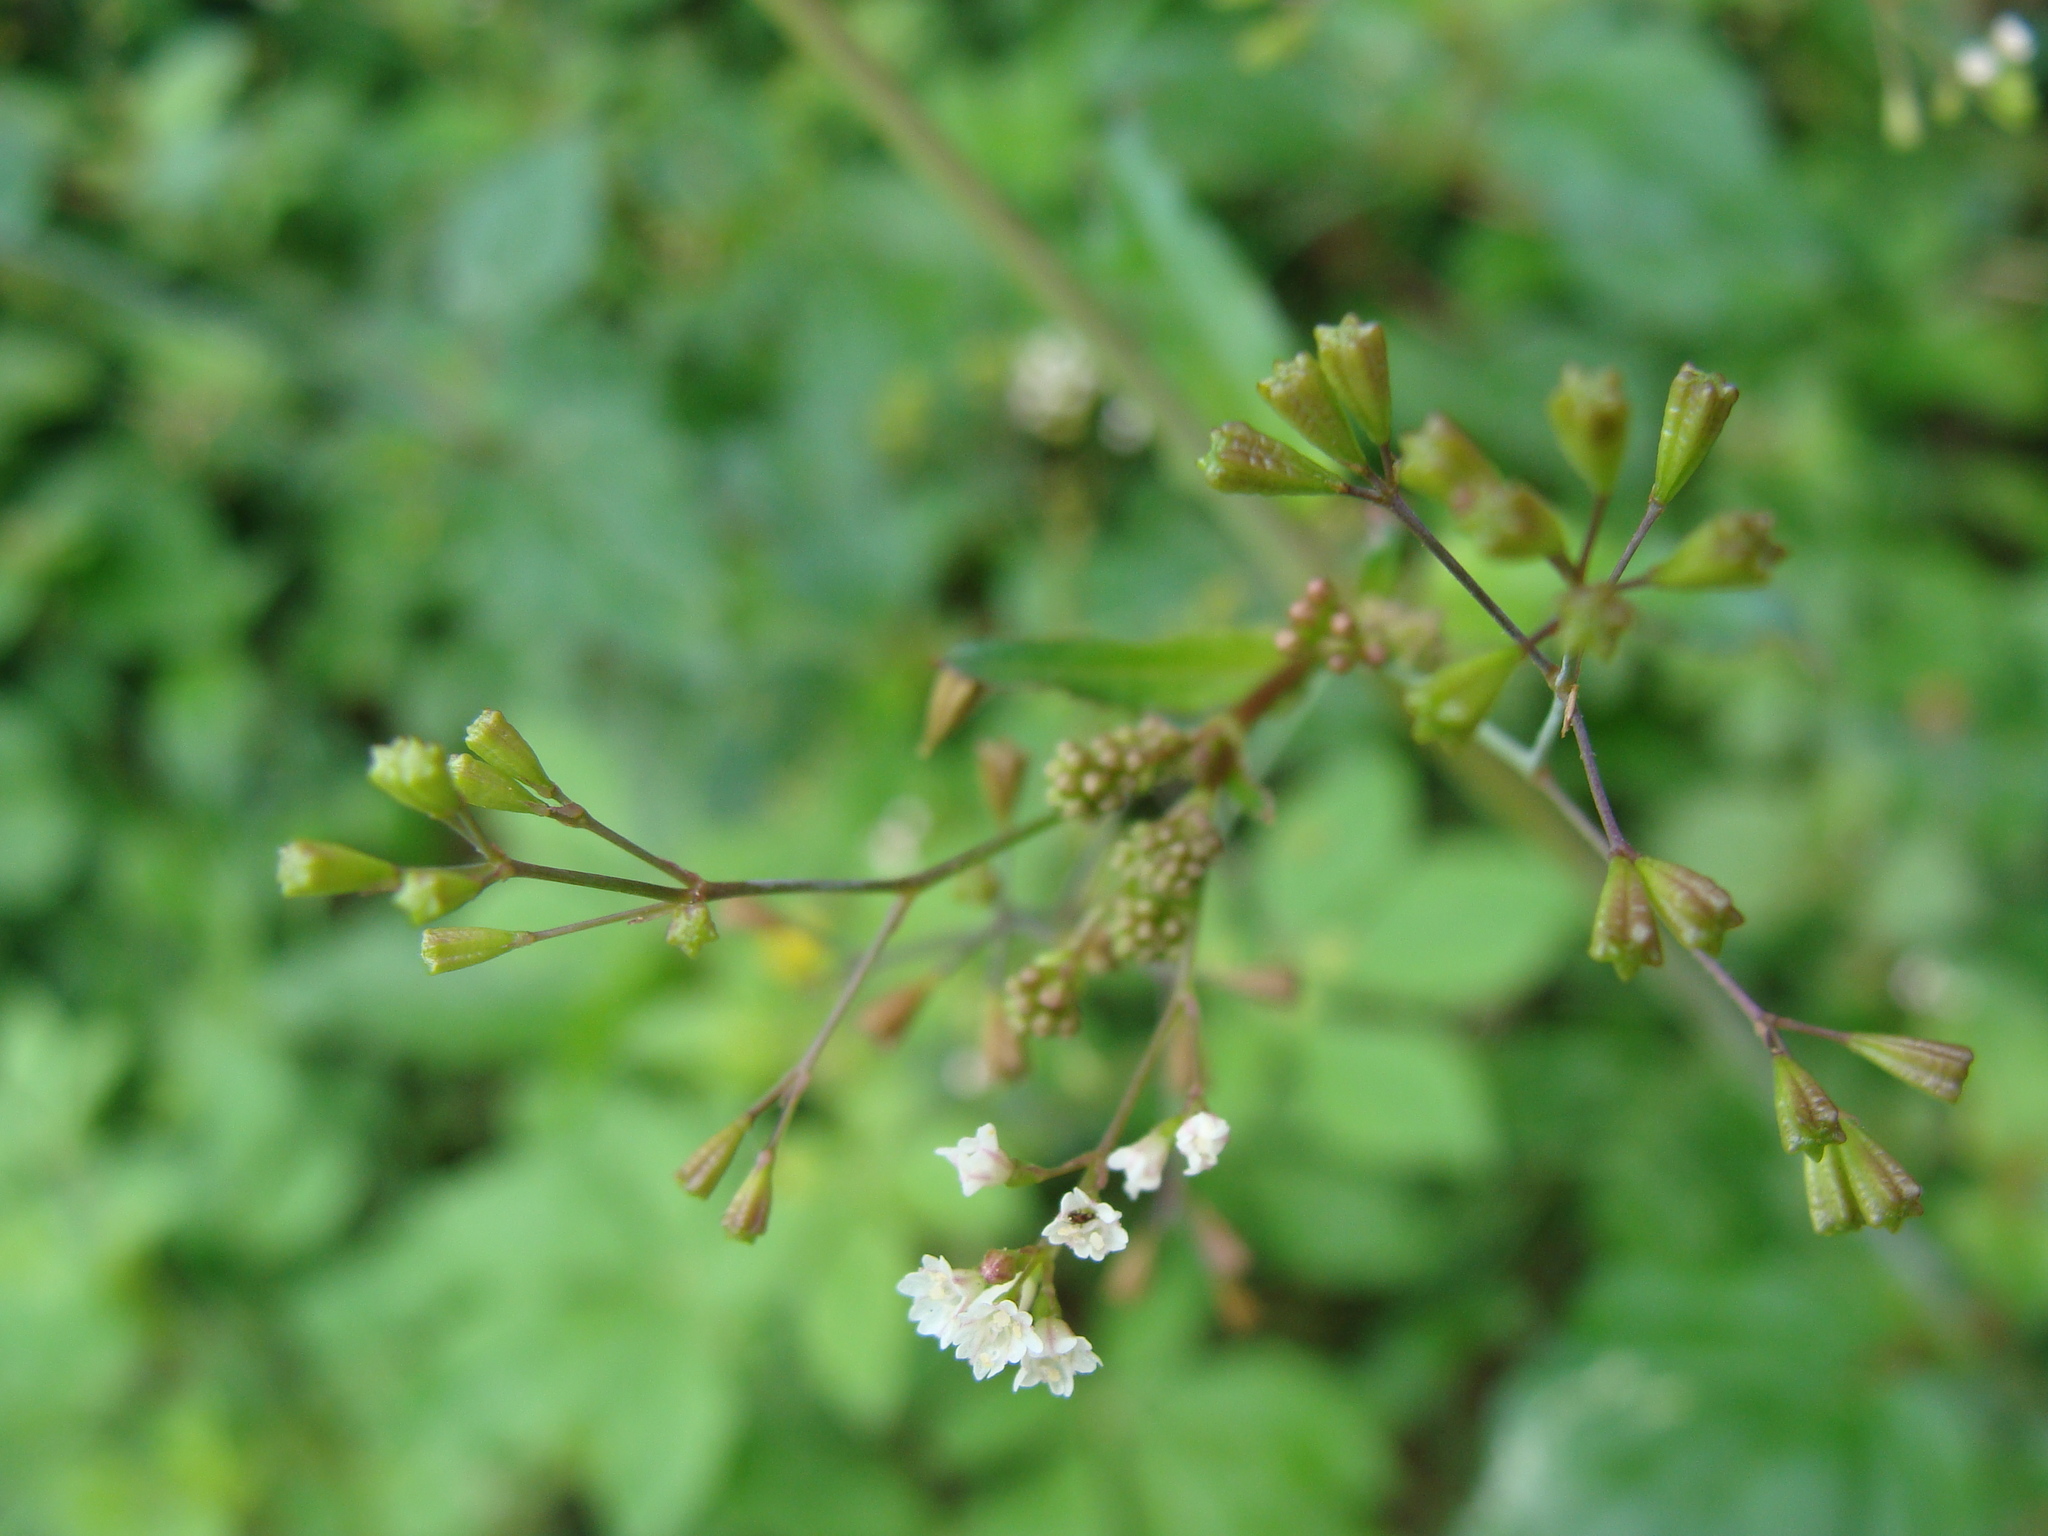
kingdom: Plantae
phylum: Tracheophyta
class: Magnoliopsida
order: Caryophyllales
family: Nyctaginaceae
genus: Boerhavia
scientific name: Boerhavia erecta
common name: Erect spiderling
